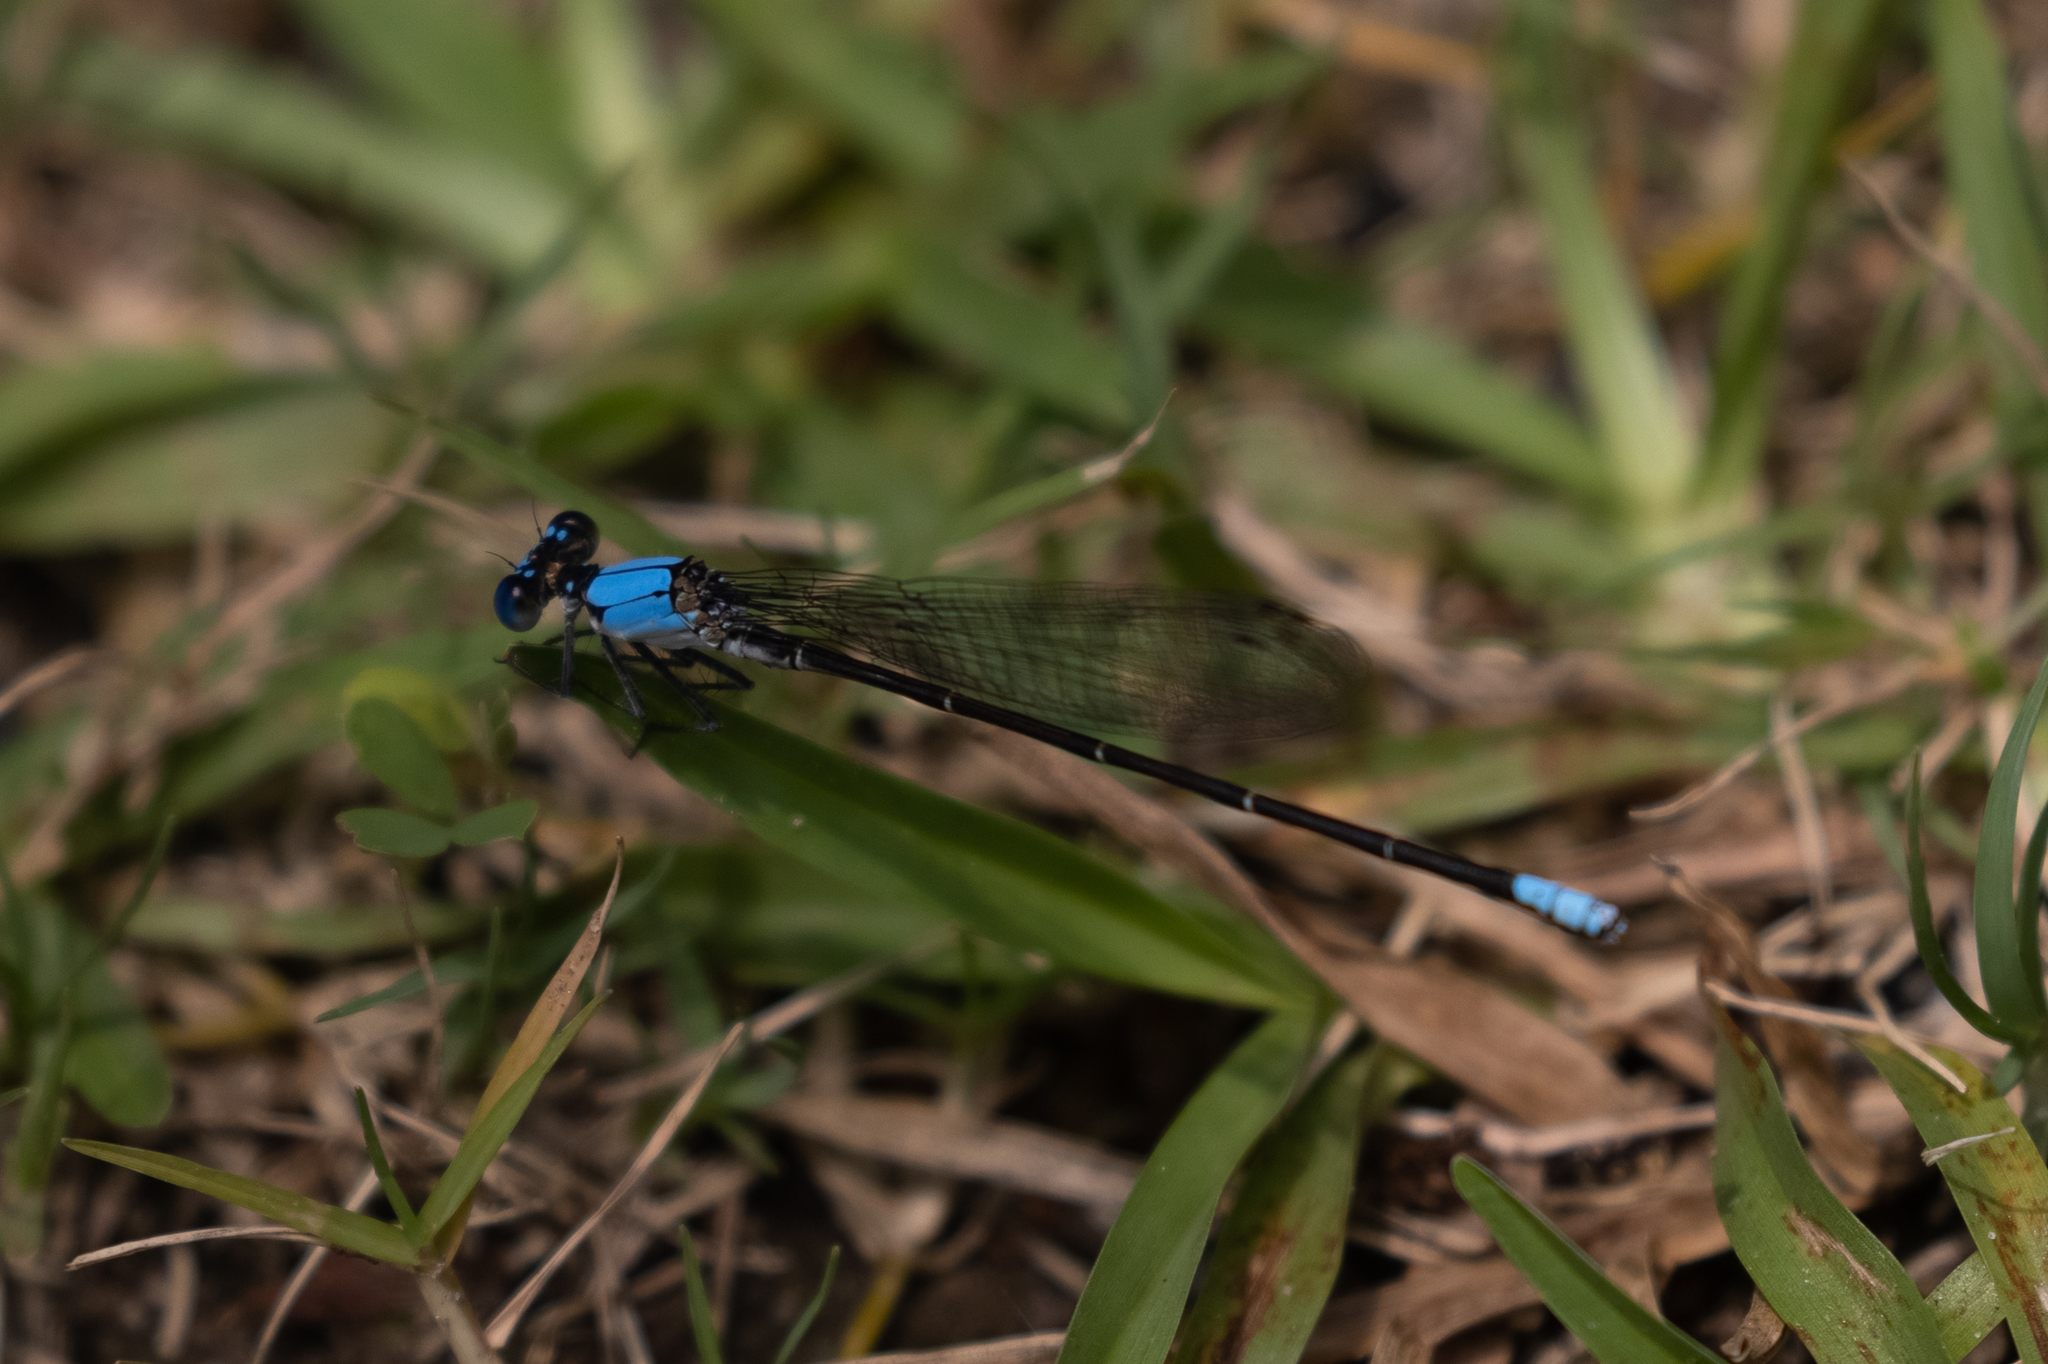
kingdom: Animalia
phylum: Arthropoda
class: Insecta
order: Odonata
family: Coenagrionidae
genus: Argia
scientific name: Argia apicalis
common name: Blue-fronted dancer
